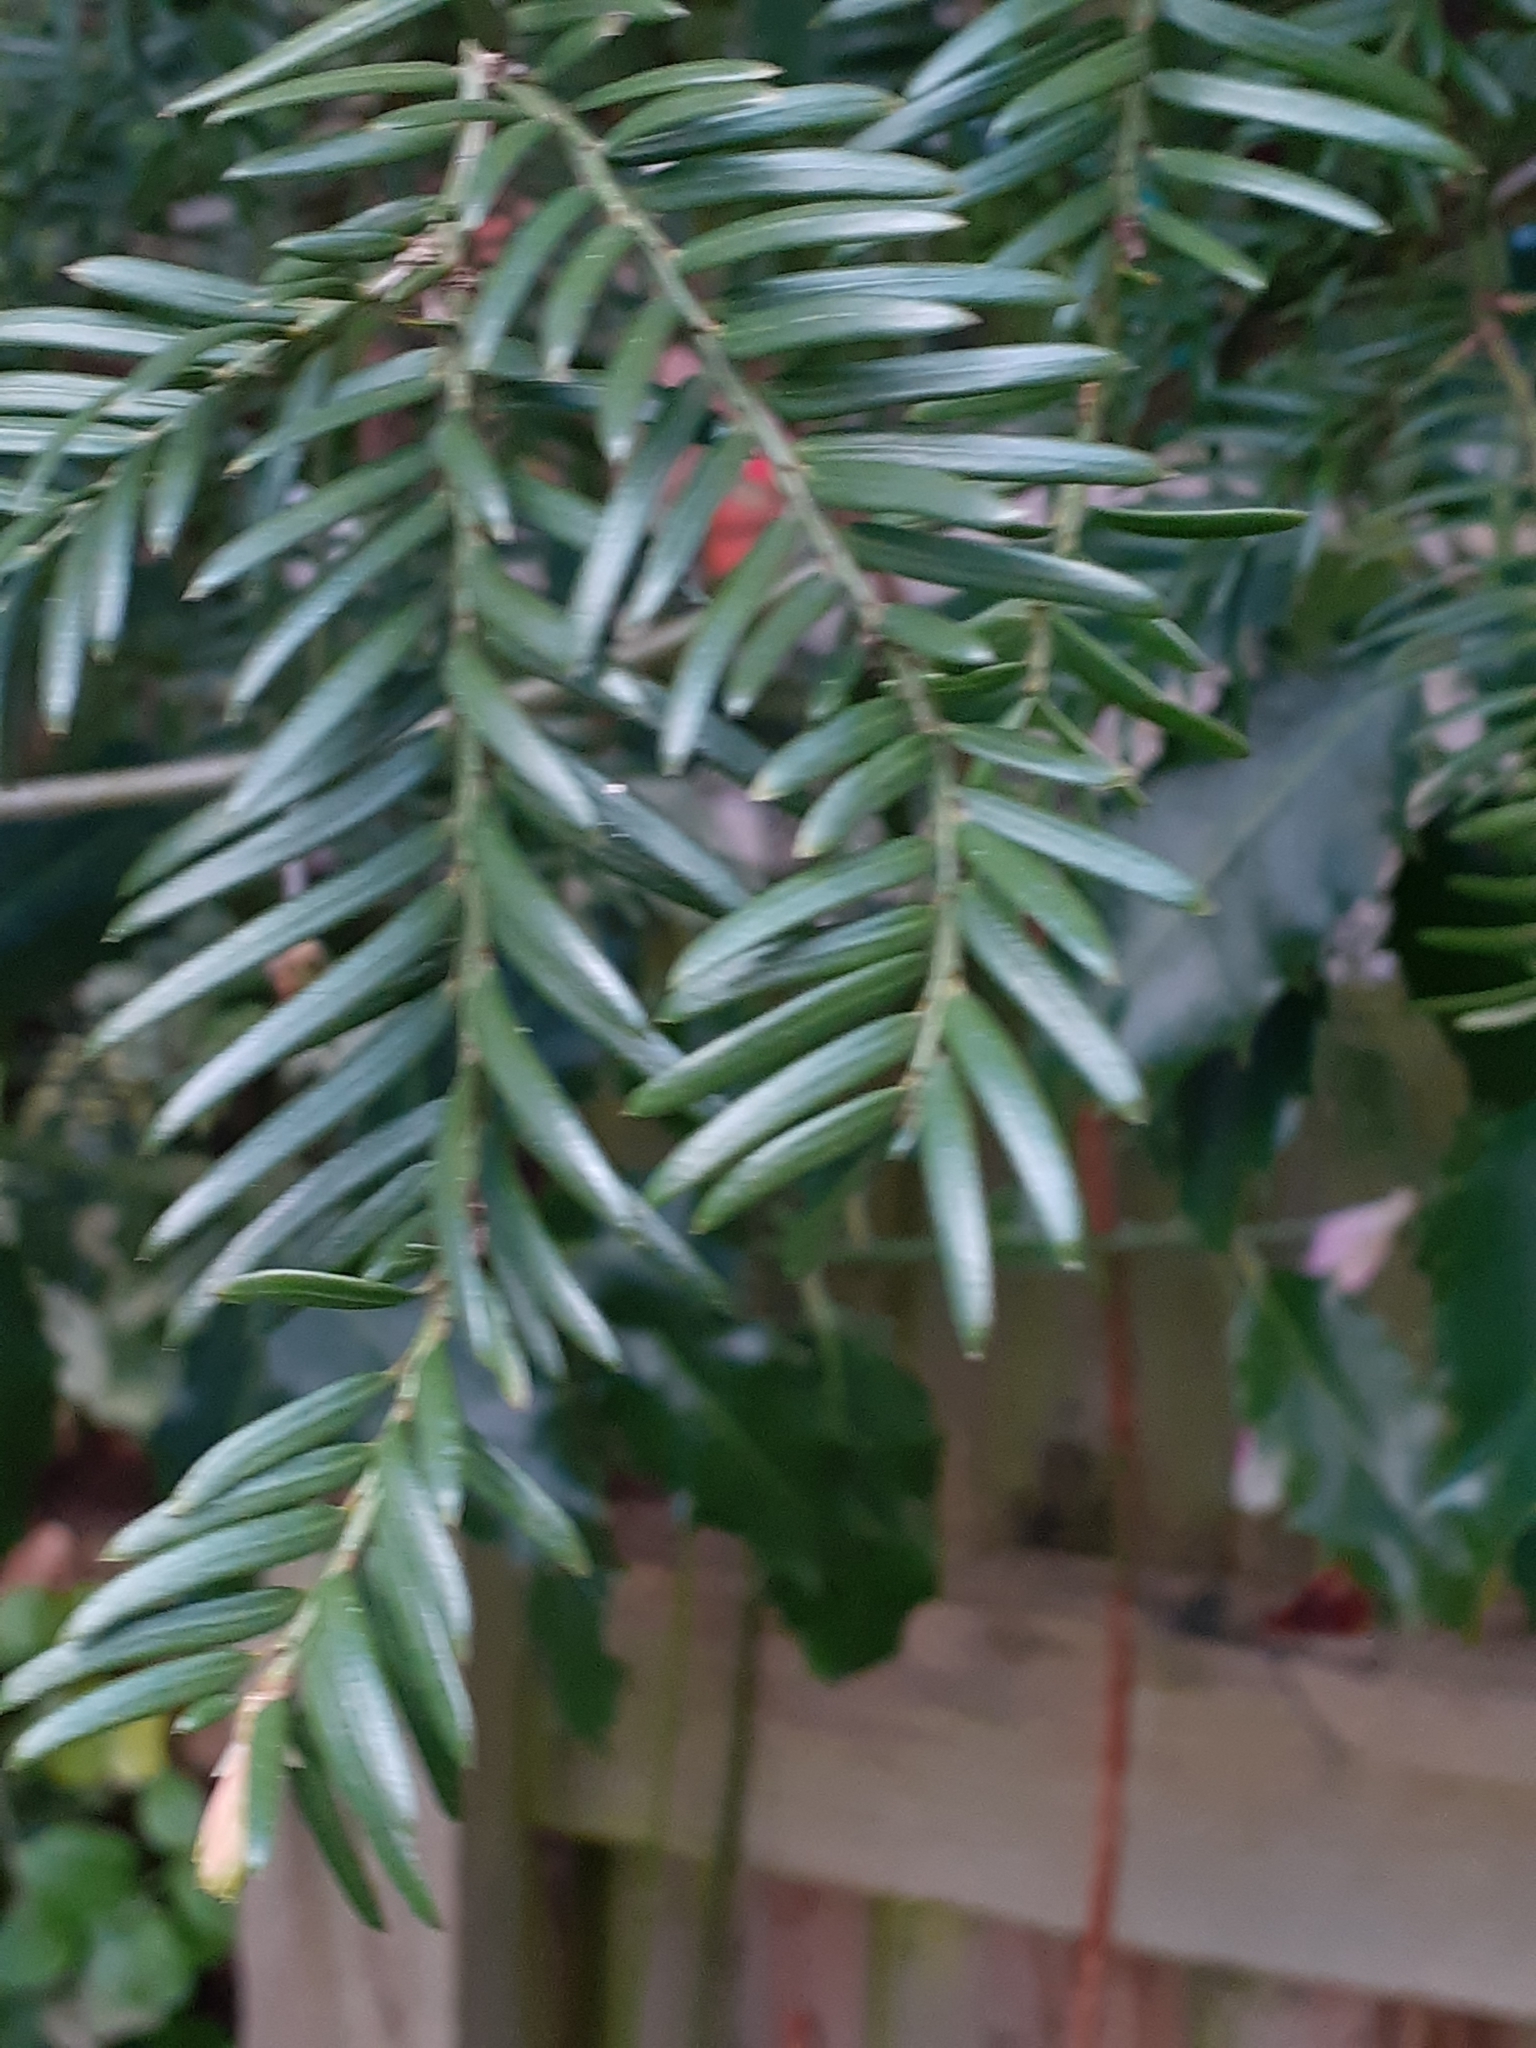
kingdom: Plantae
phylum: Tracheophyta
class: Pinopsida
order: Pinales
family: Taxaceae
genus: Taxus
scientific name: Taxus baccata
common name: Yew
